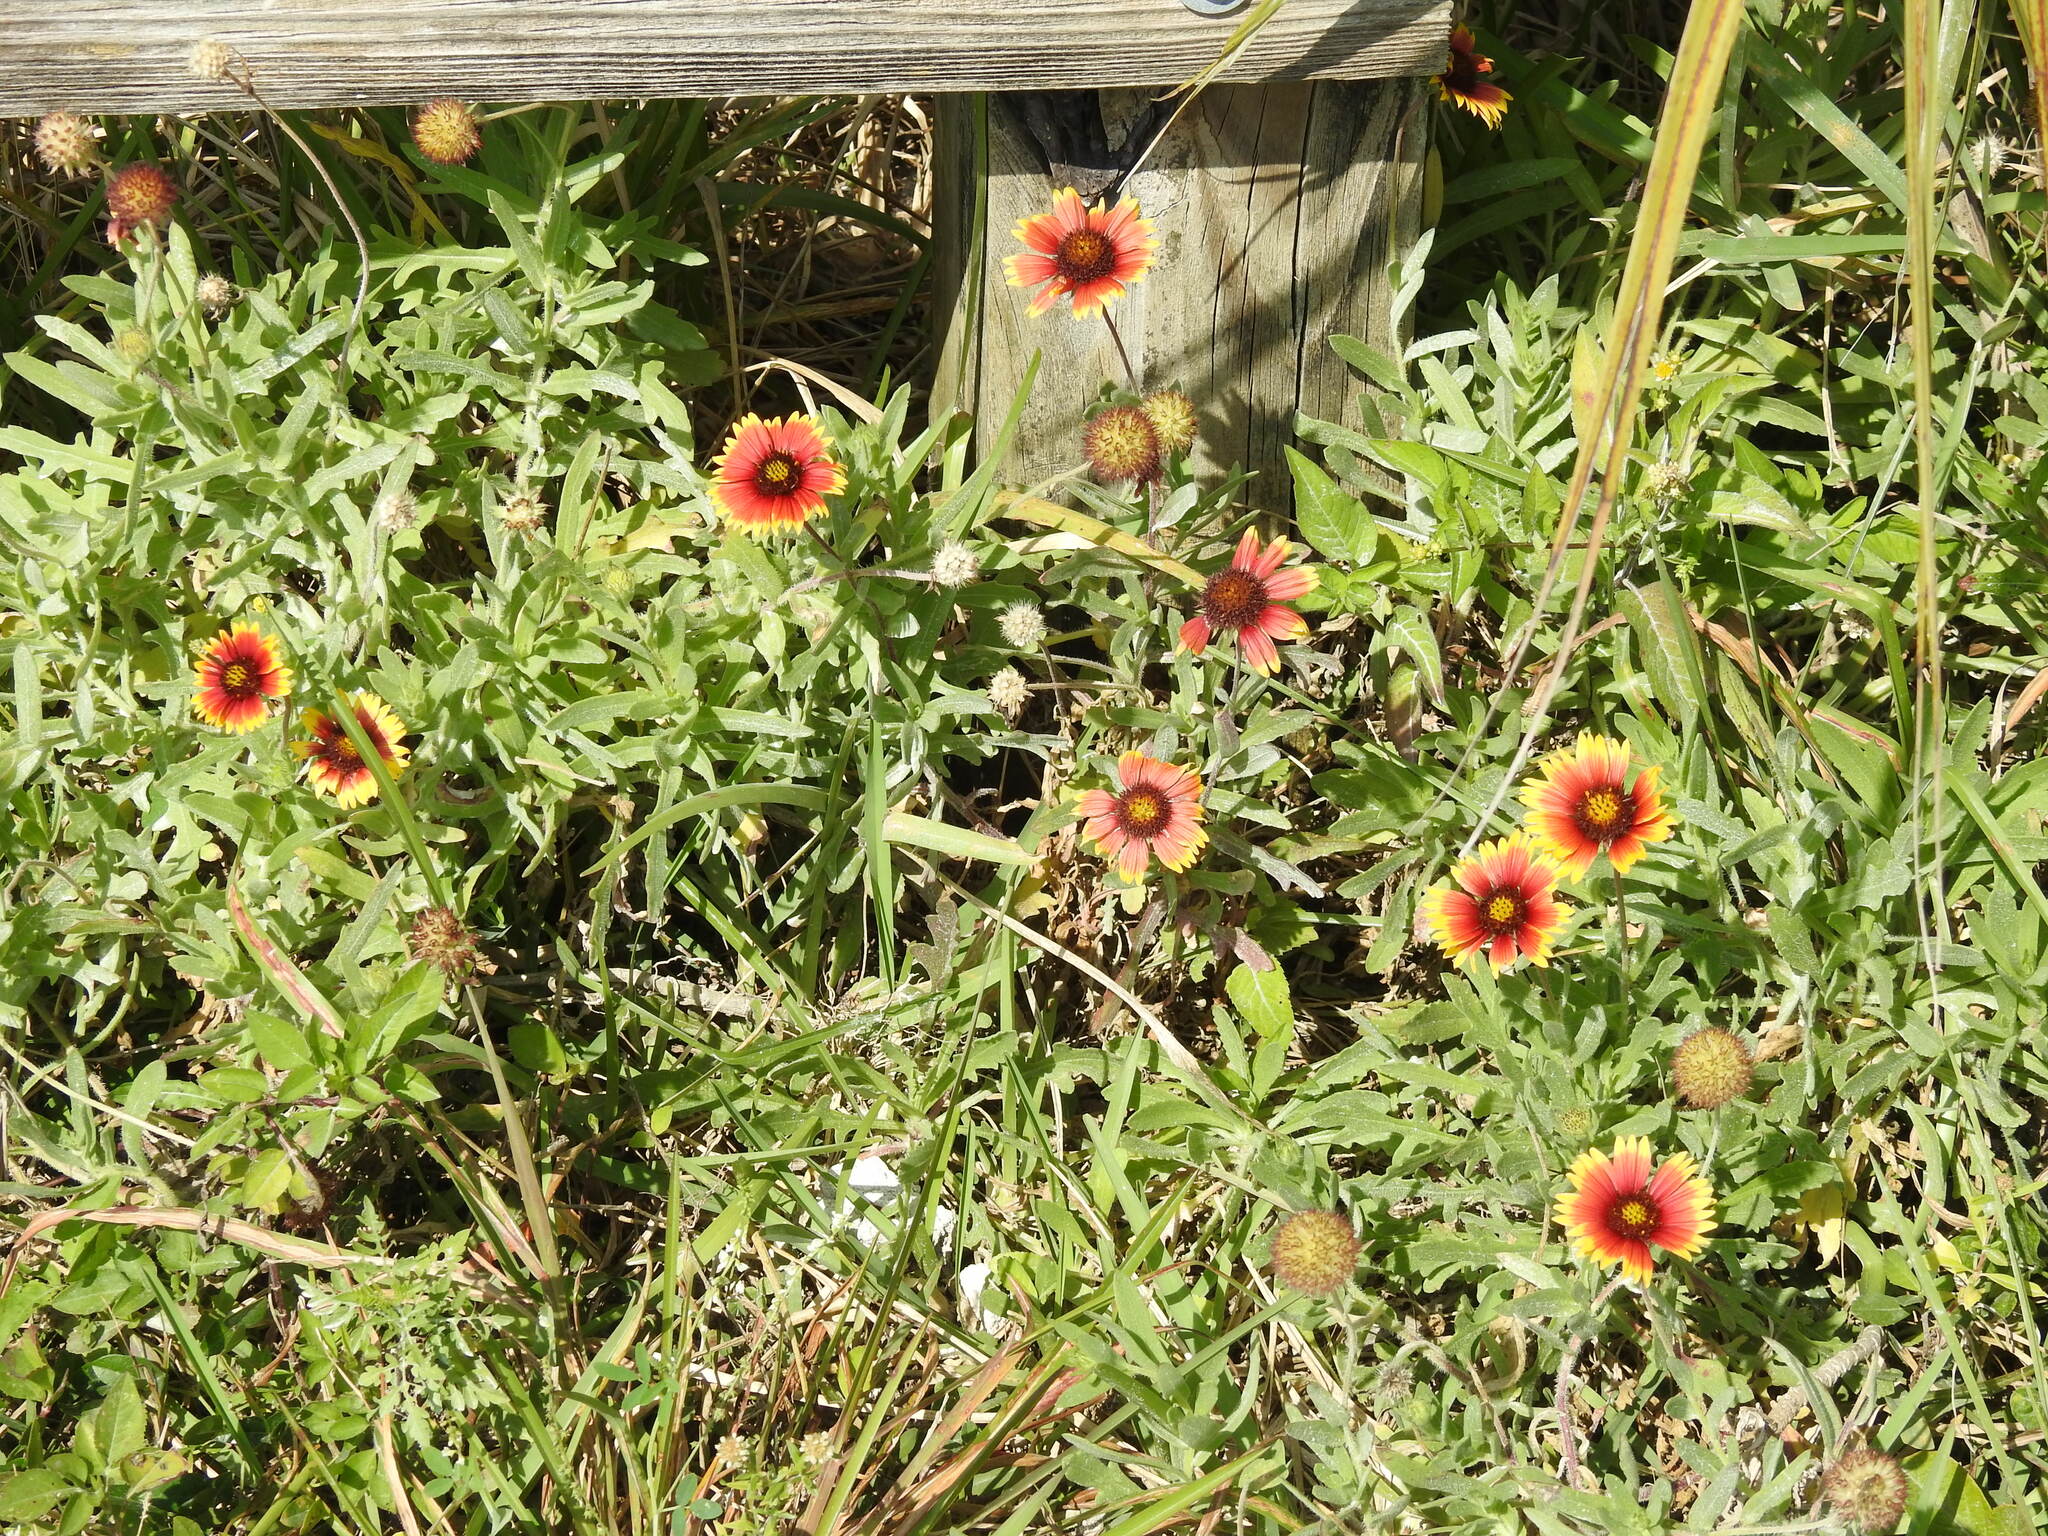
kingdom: Plantae
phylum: Tracheophyta
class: Magnoliopsida
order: Asterales
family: Asteraceae
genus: Gaillardia
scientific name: Gaillardia pulchella
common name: Firewheel
